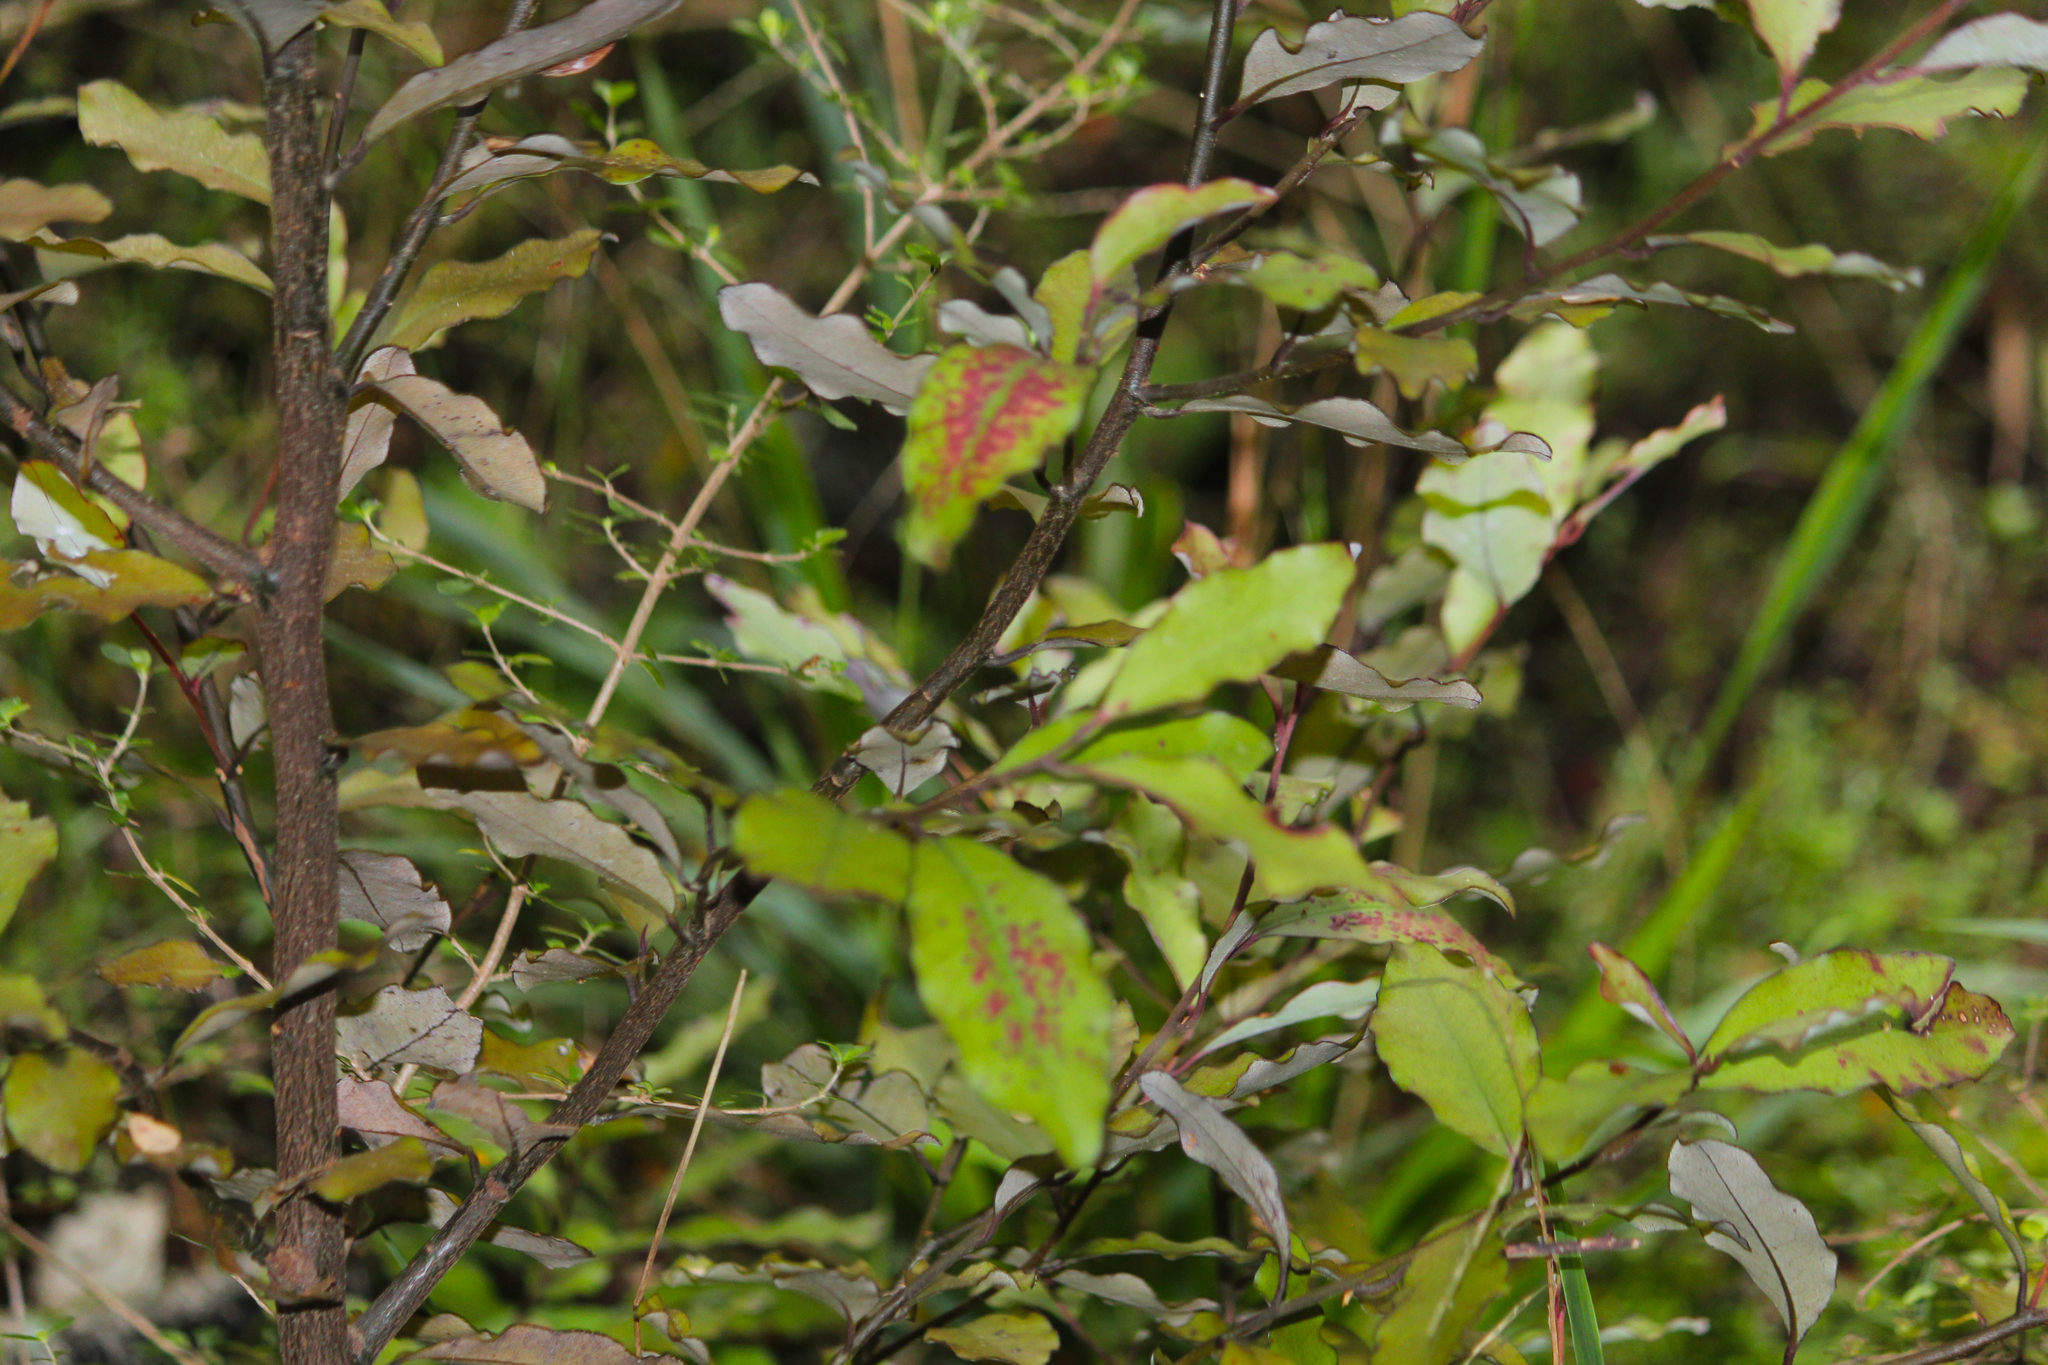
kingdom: Plantae
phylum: Tracheophyta
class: Magnoliopsida
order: Canellales
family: Winteraceae
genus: Pseudowintera
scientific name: Pseudowintera colorata
